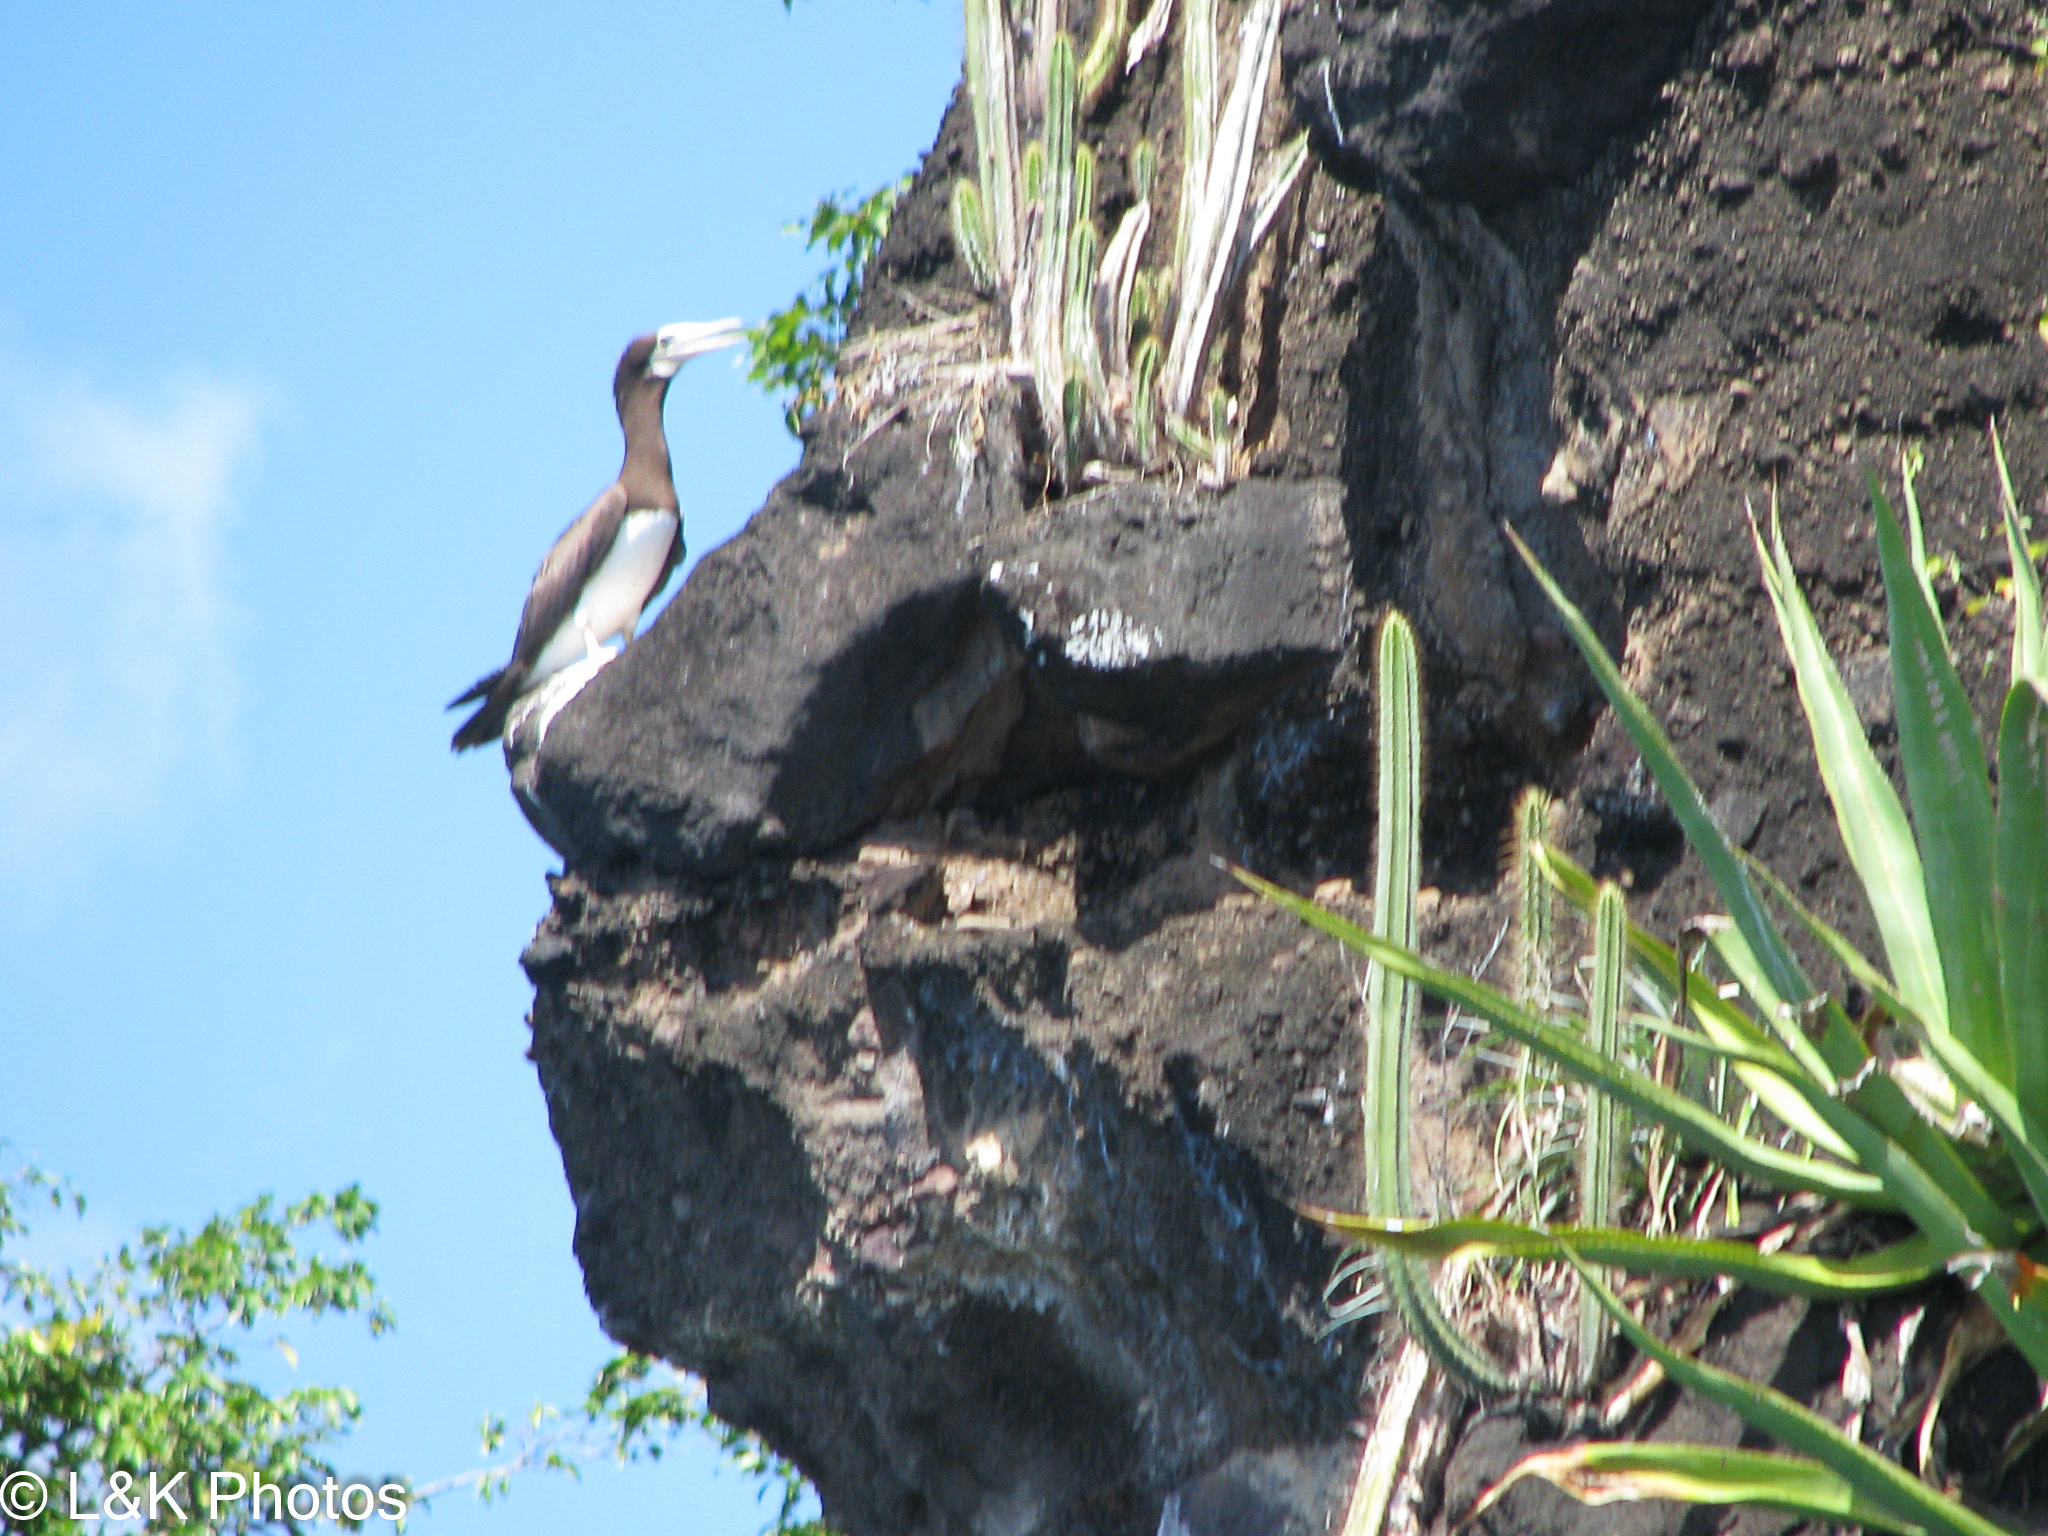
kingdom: Animalia
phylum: Chordata
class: Aves
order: Suliformes
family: Sulidae
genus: Sula
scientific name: Sula leucogaster
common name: Brown booby
